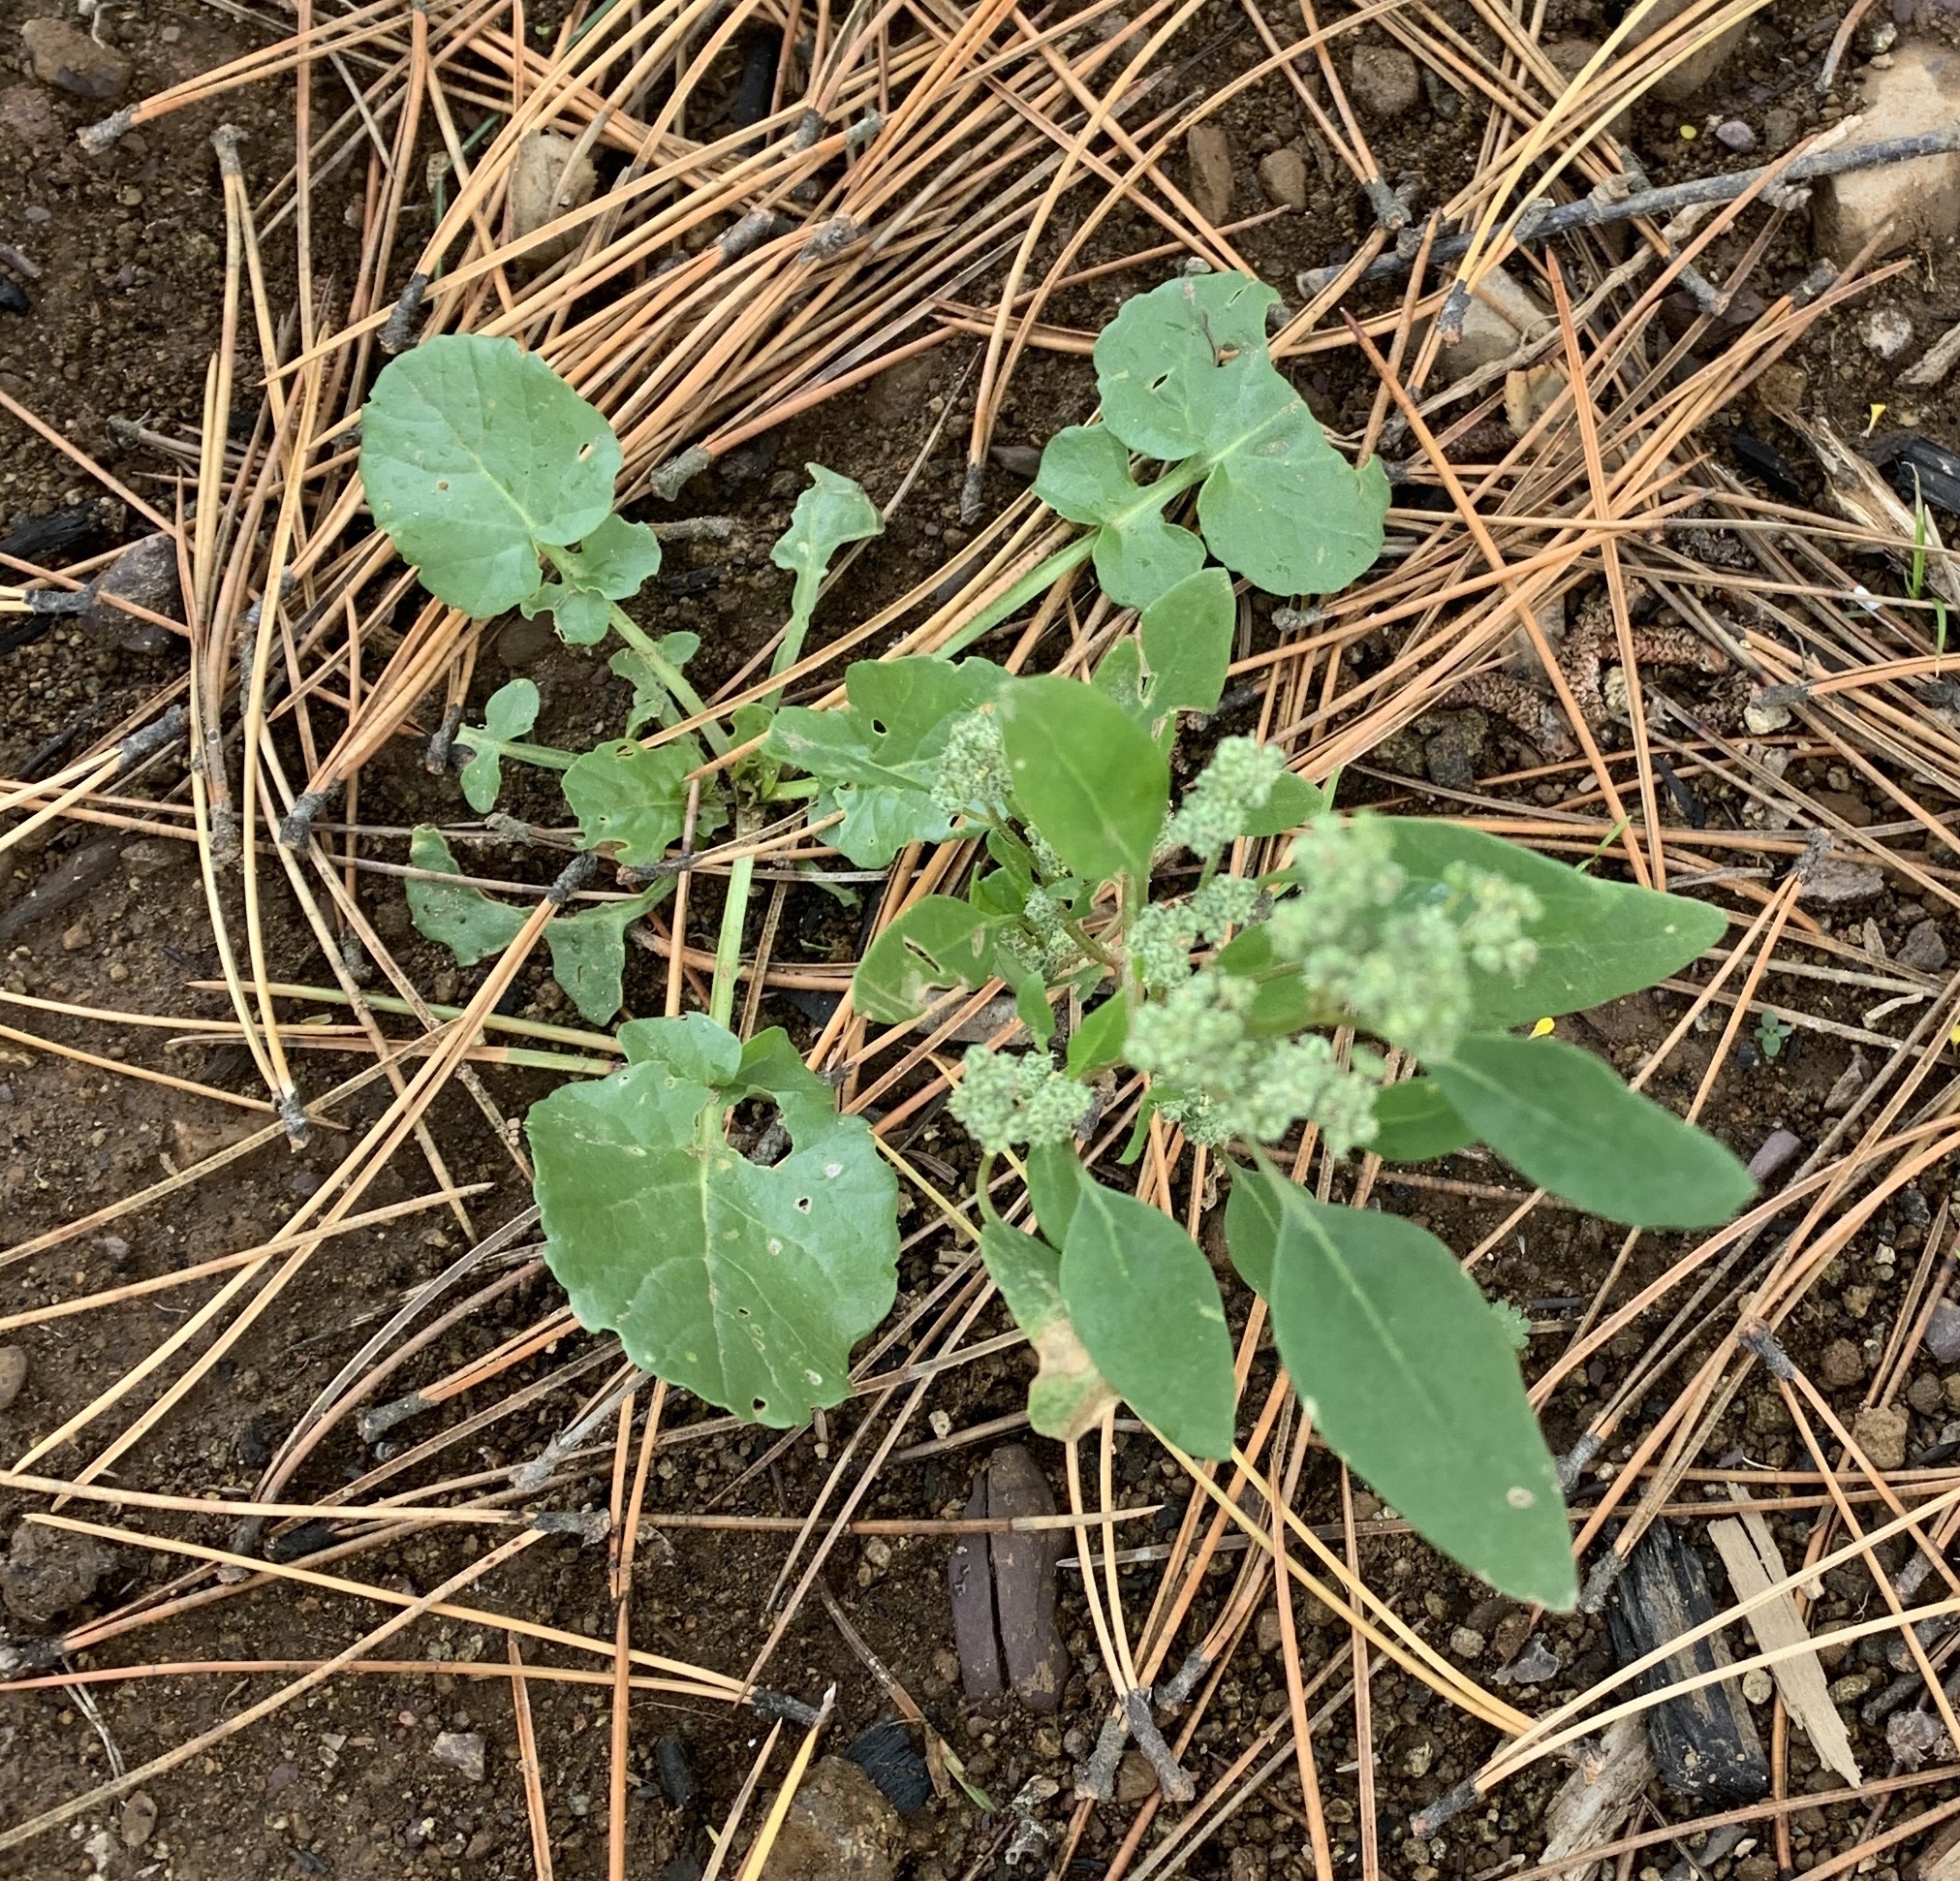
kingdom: Plantae
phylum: Tracheophyta
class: Magnoliopsida
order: Caryophyllales
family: Amaranthaceae
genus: Chenopodium
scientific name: Chenopodium album
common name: Fat-hen
